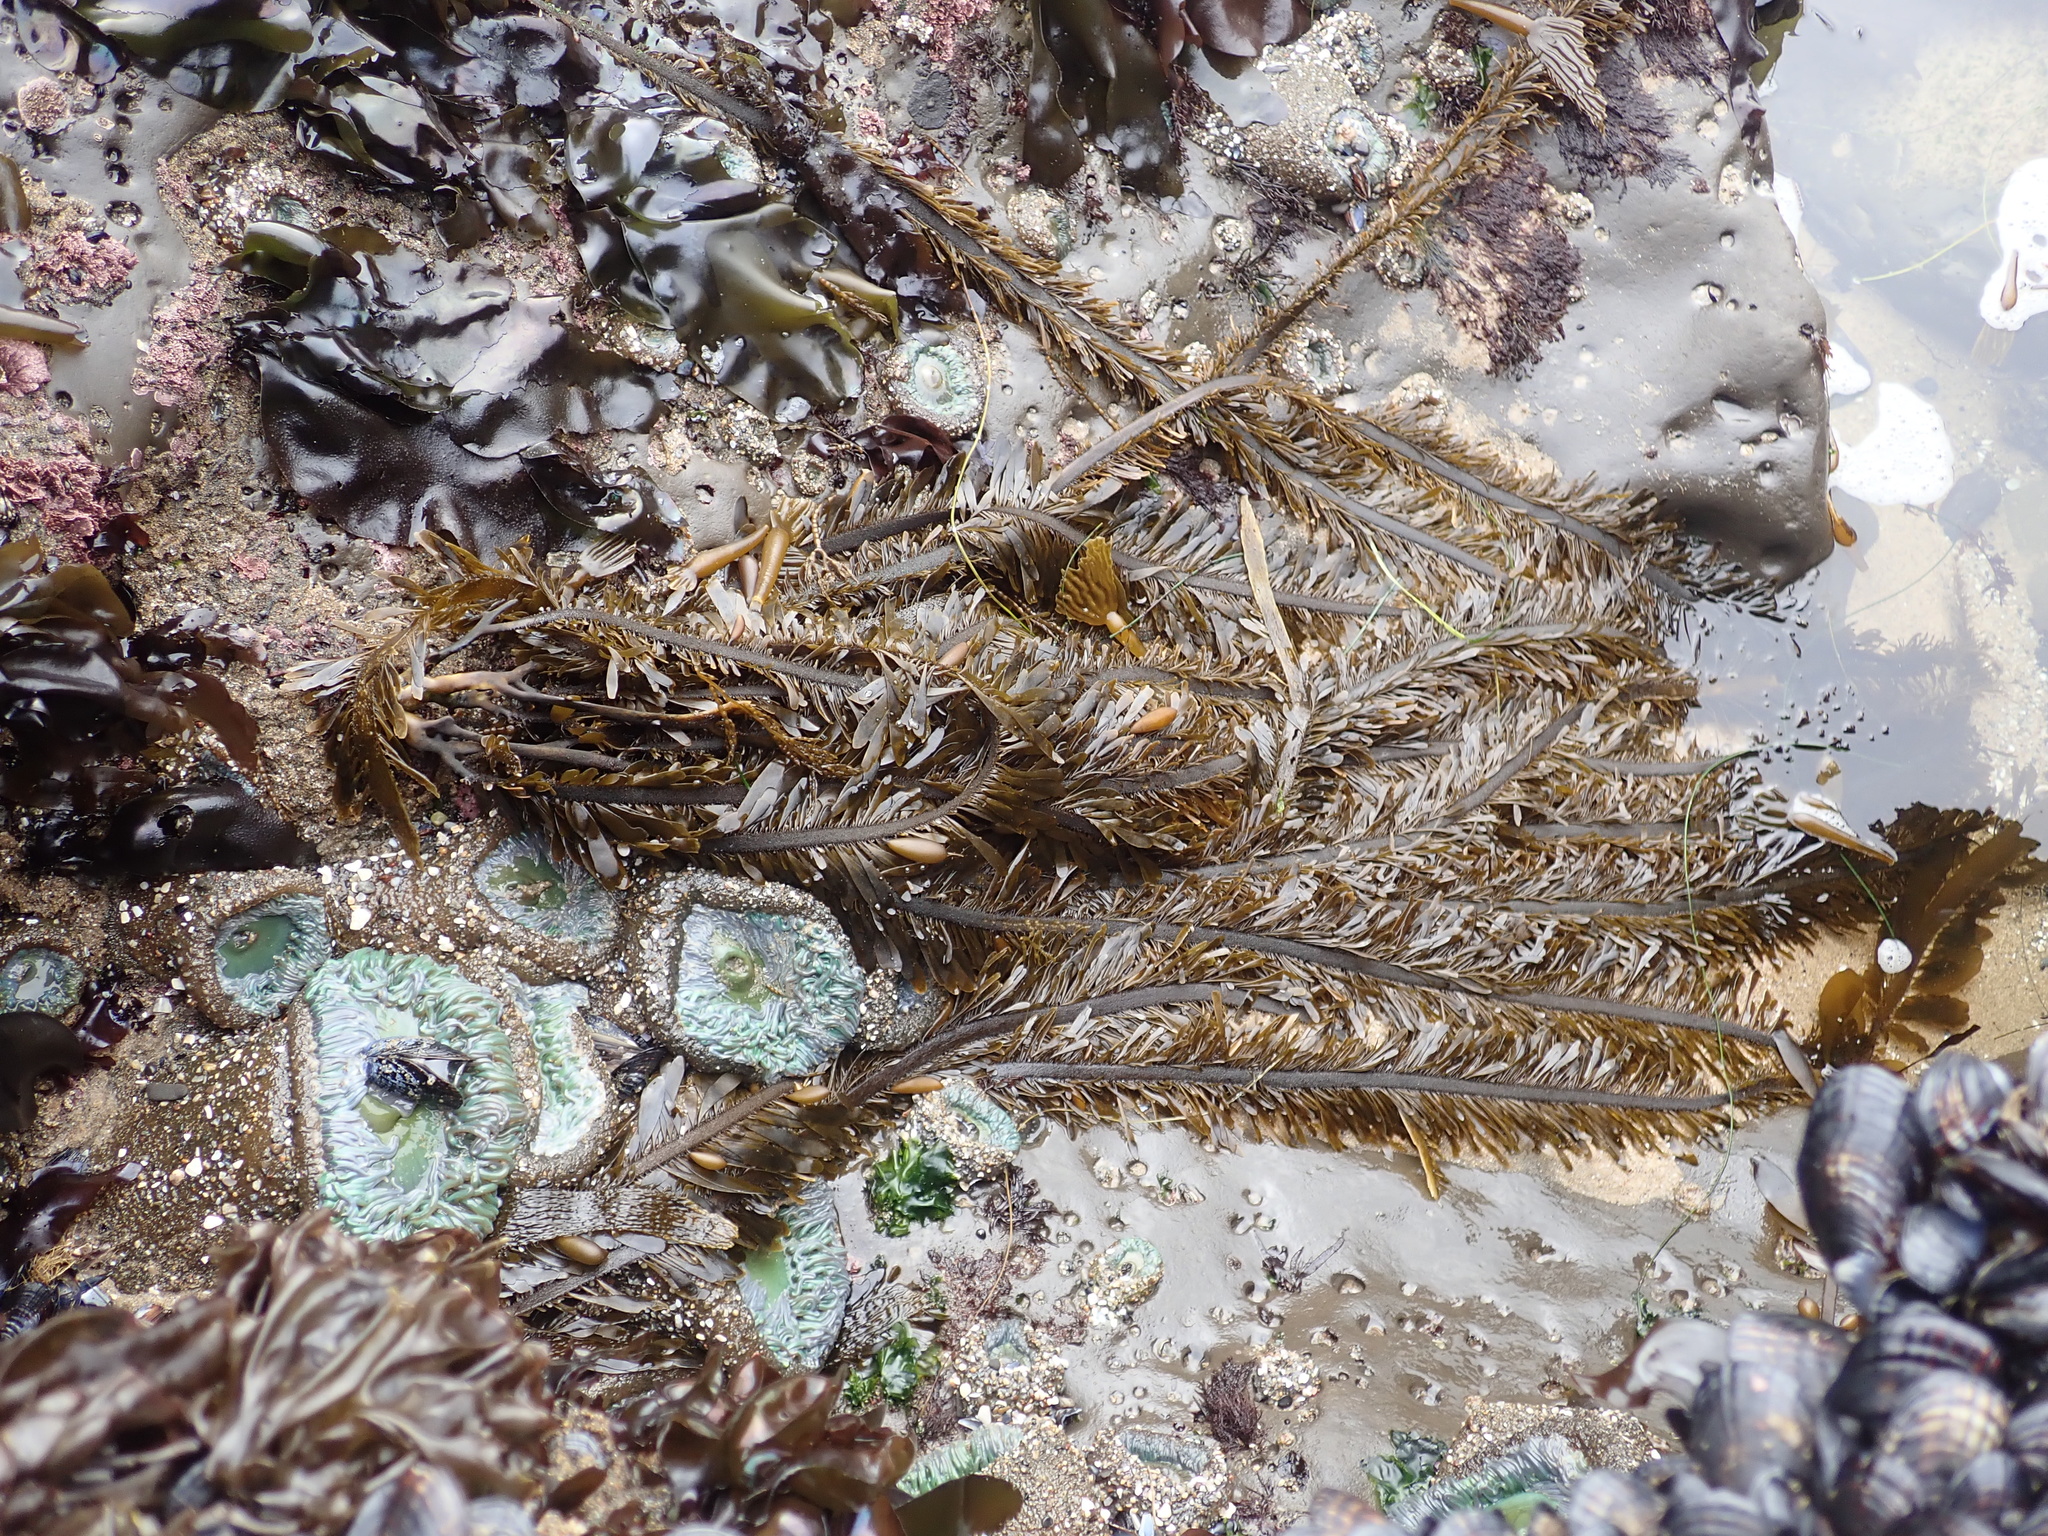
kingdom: Chromista
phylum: Ochrophyta
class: Phaeophyceae
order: Laminariales
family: Lessoniaceae
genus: Egregia
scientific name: Egregia menziesii
